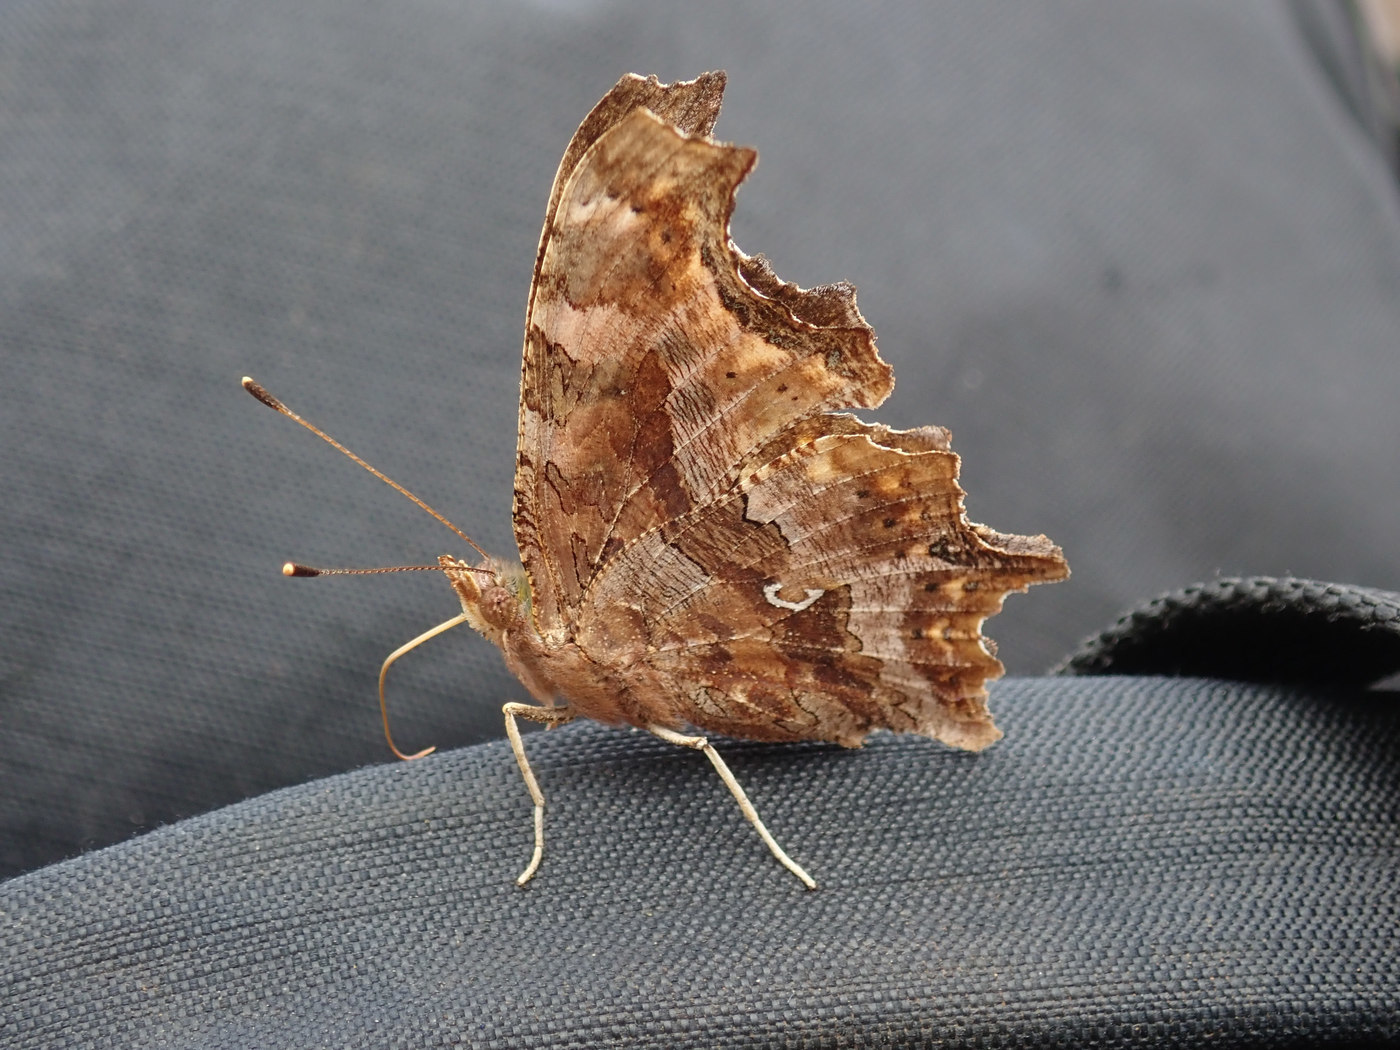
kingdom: Animalia
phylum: Arthropoda
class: Insecta
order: Lepidoptera
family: Nymphalidae
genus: Polygonia
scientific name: Polygonia comma
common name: Eastern comma
